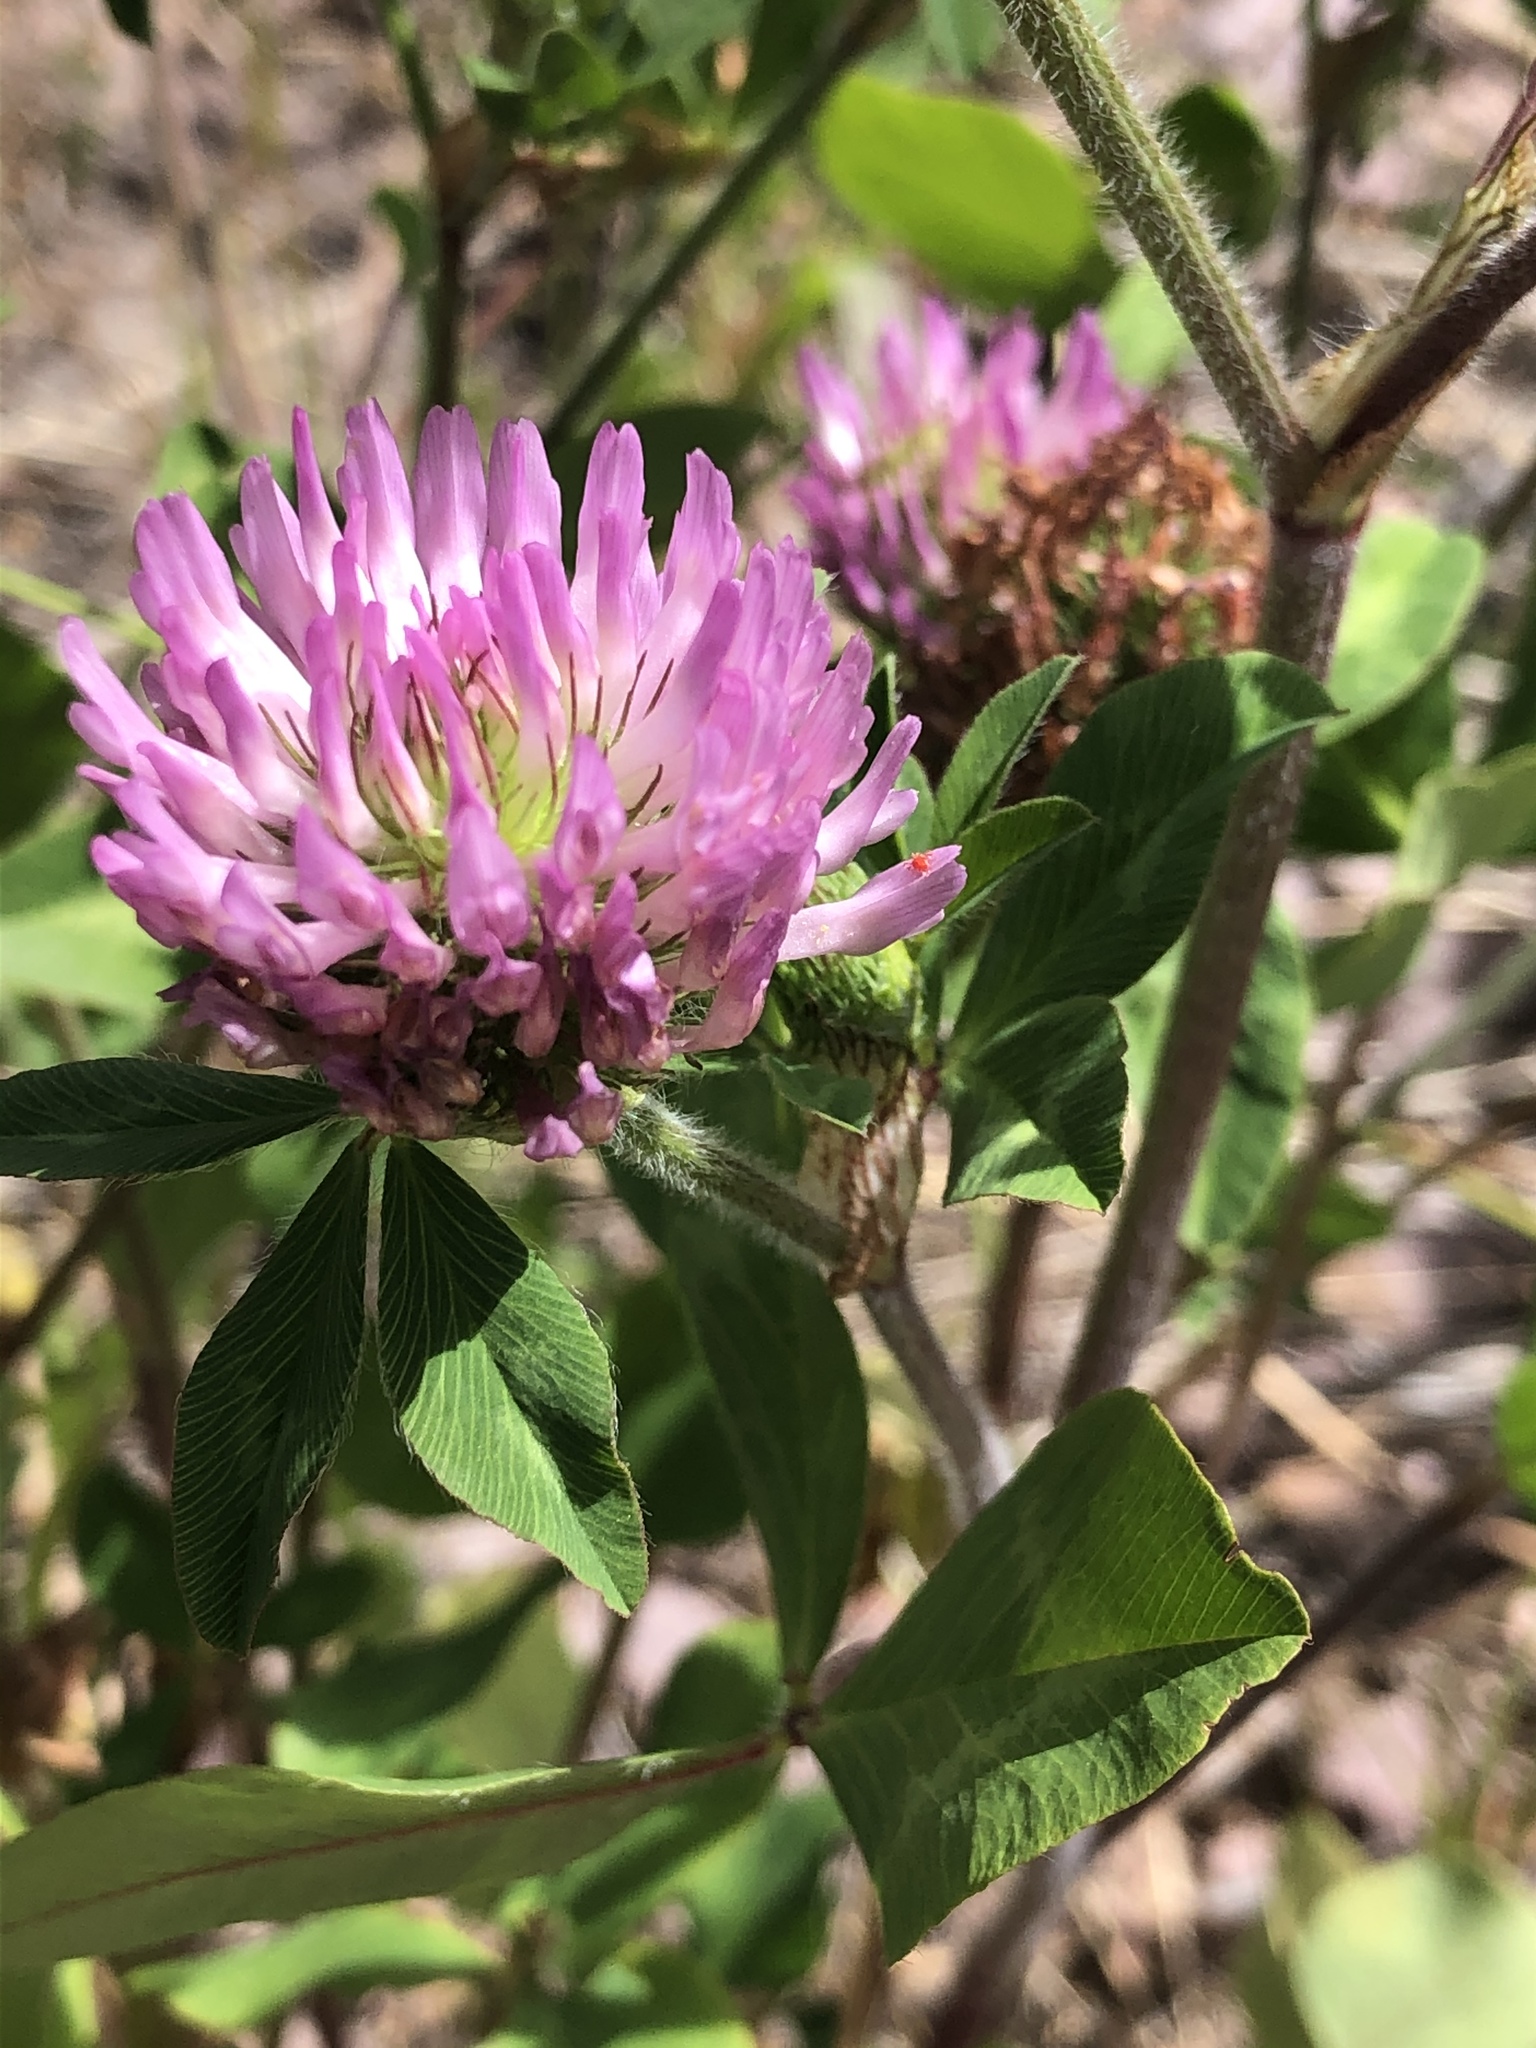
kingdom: Plantae
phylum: Tracheophyta
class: Magnoliopsida
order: Fabales
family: Fabaceae
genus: Trifolium
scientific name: Trifolium pratense
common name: Red clover
